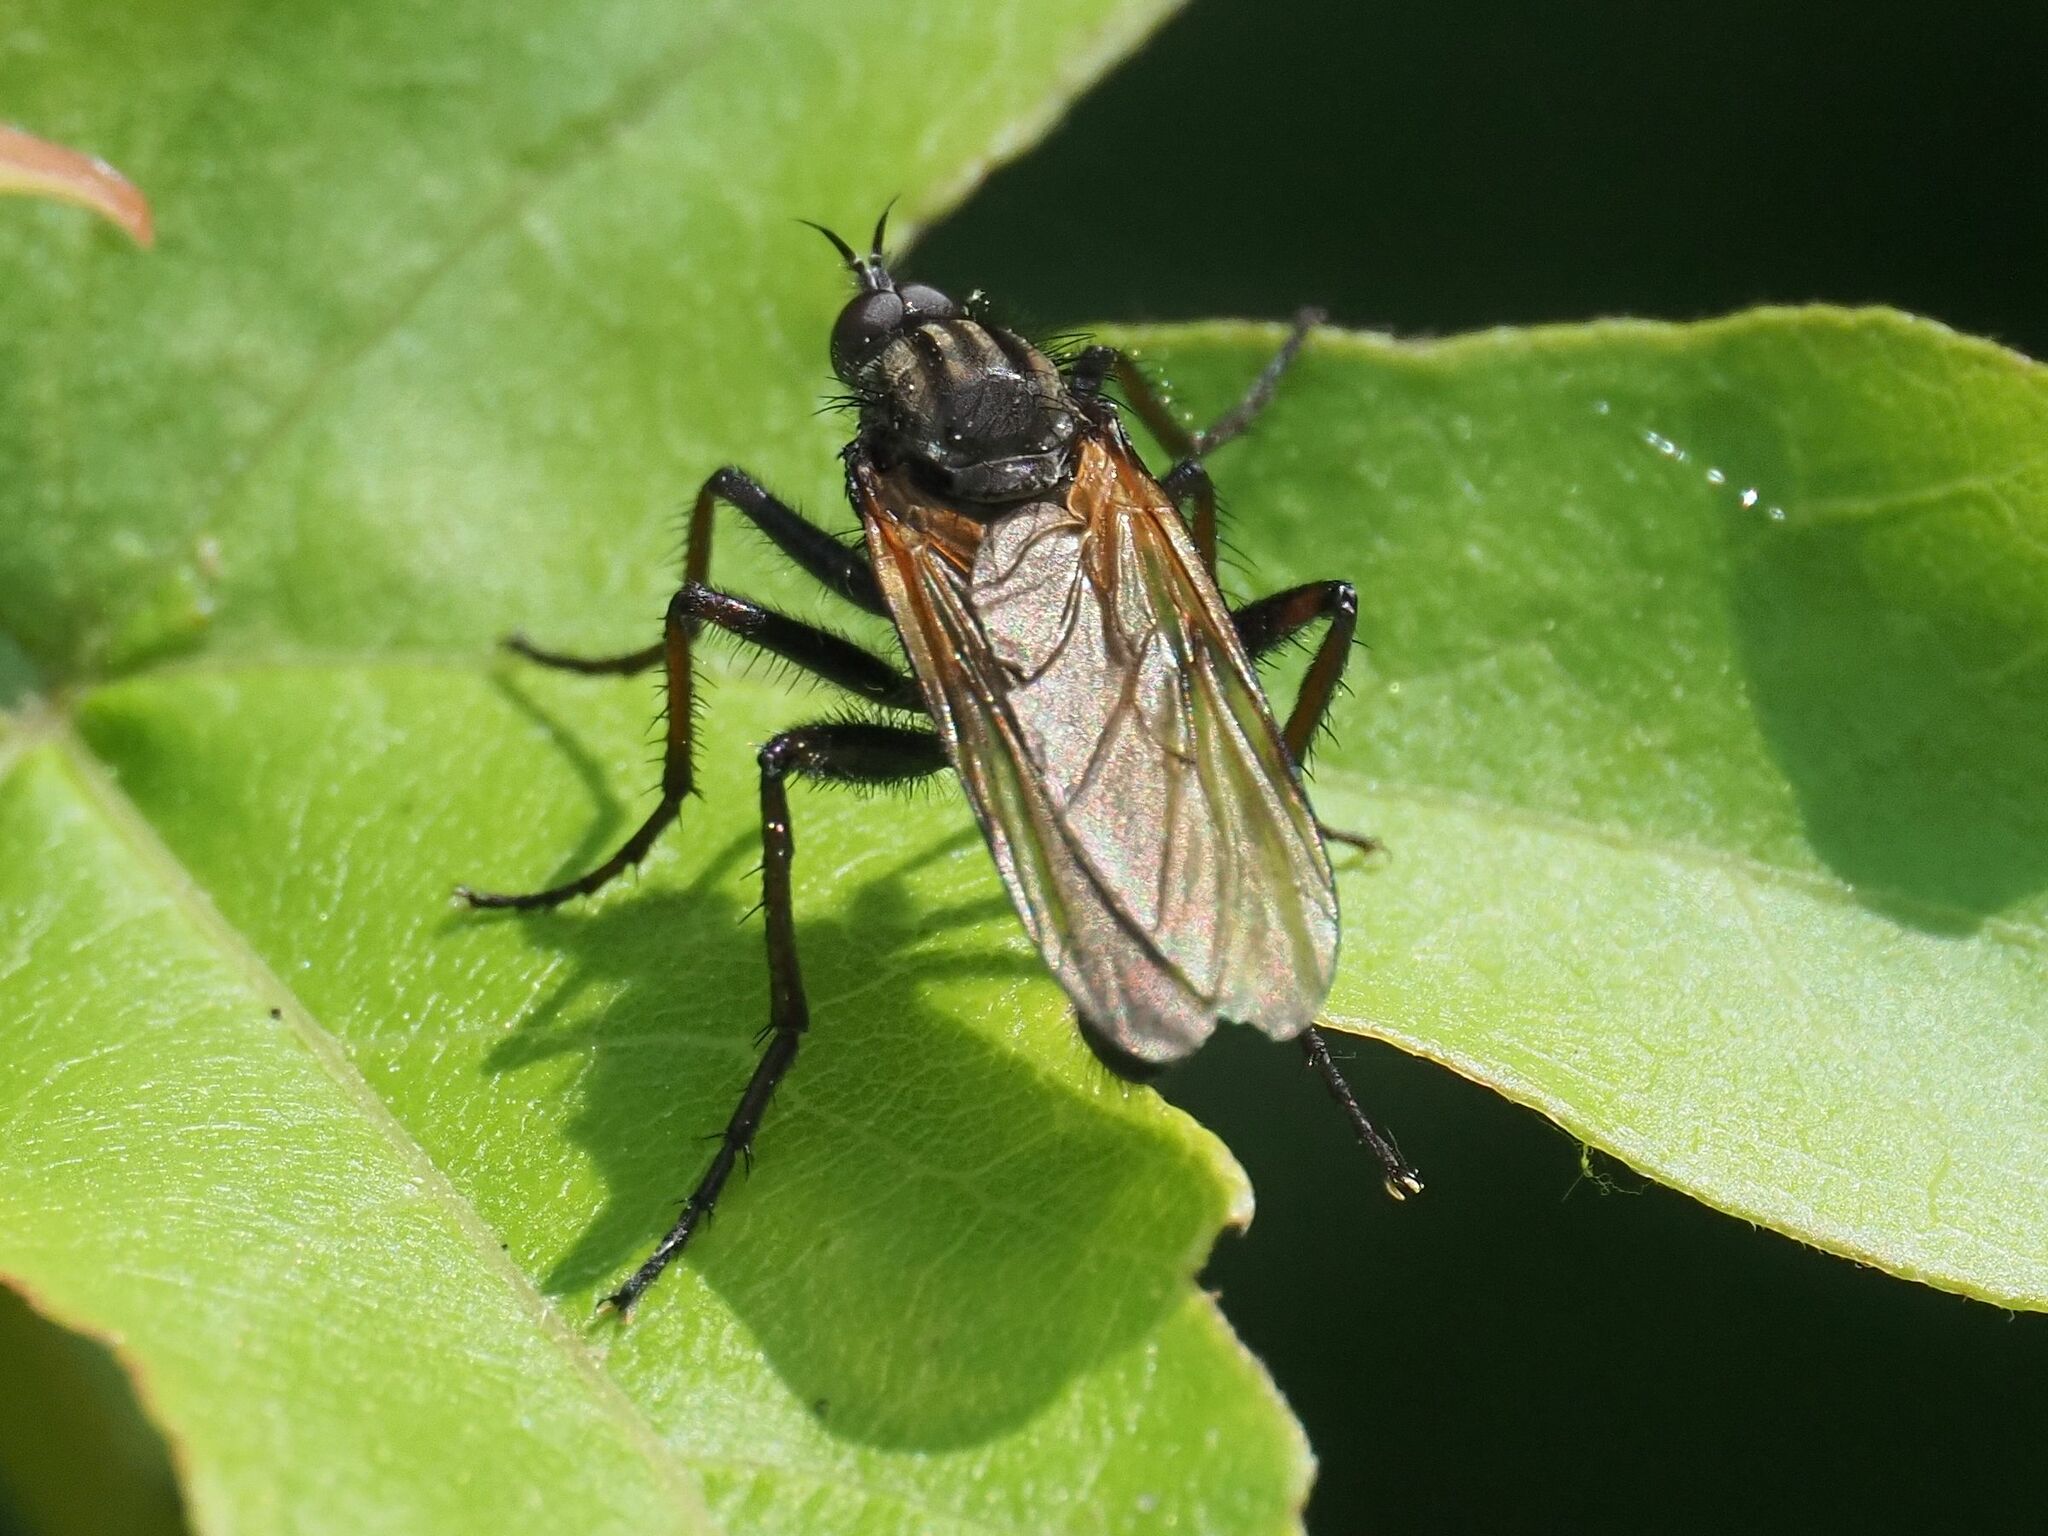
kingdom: Animalia
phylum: Arthropoda
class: Insecta
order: Diptera
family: Empididae
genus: Empis
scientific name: Empis tessellata
